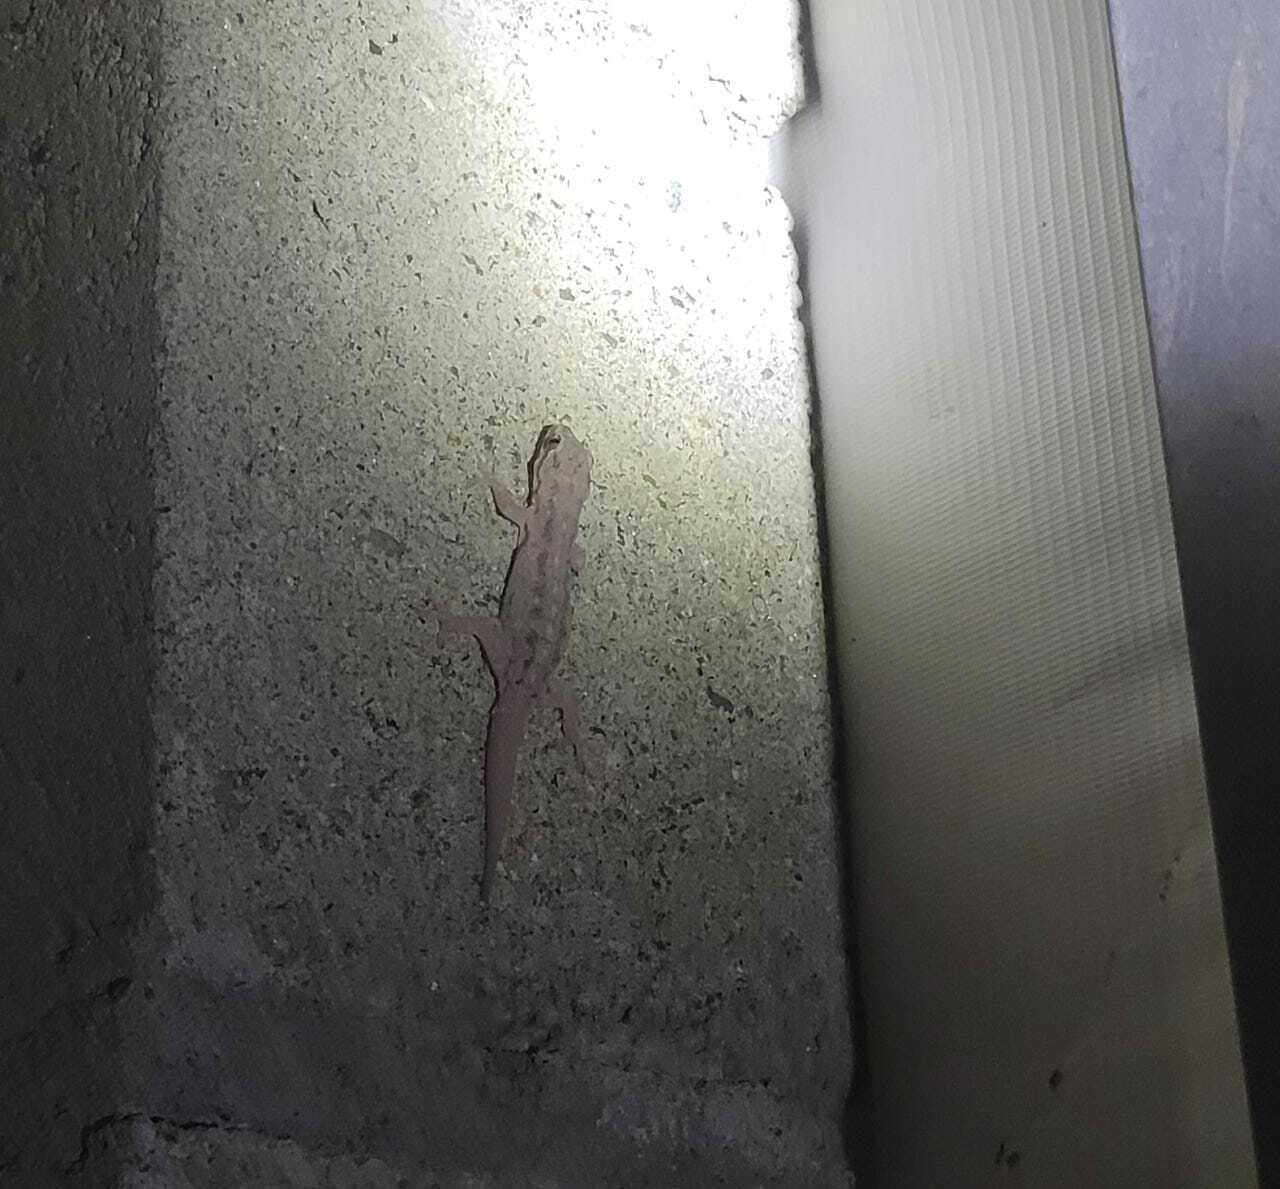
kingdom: Animalia
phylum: Chordata
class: Squamata
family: Gekkonidae
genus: Hemidactylus
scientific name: Hemidactylus frenatus
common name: Common house gecko
